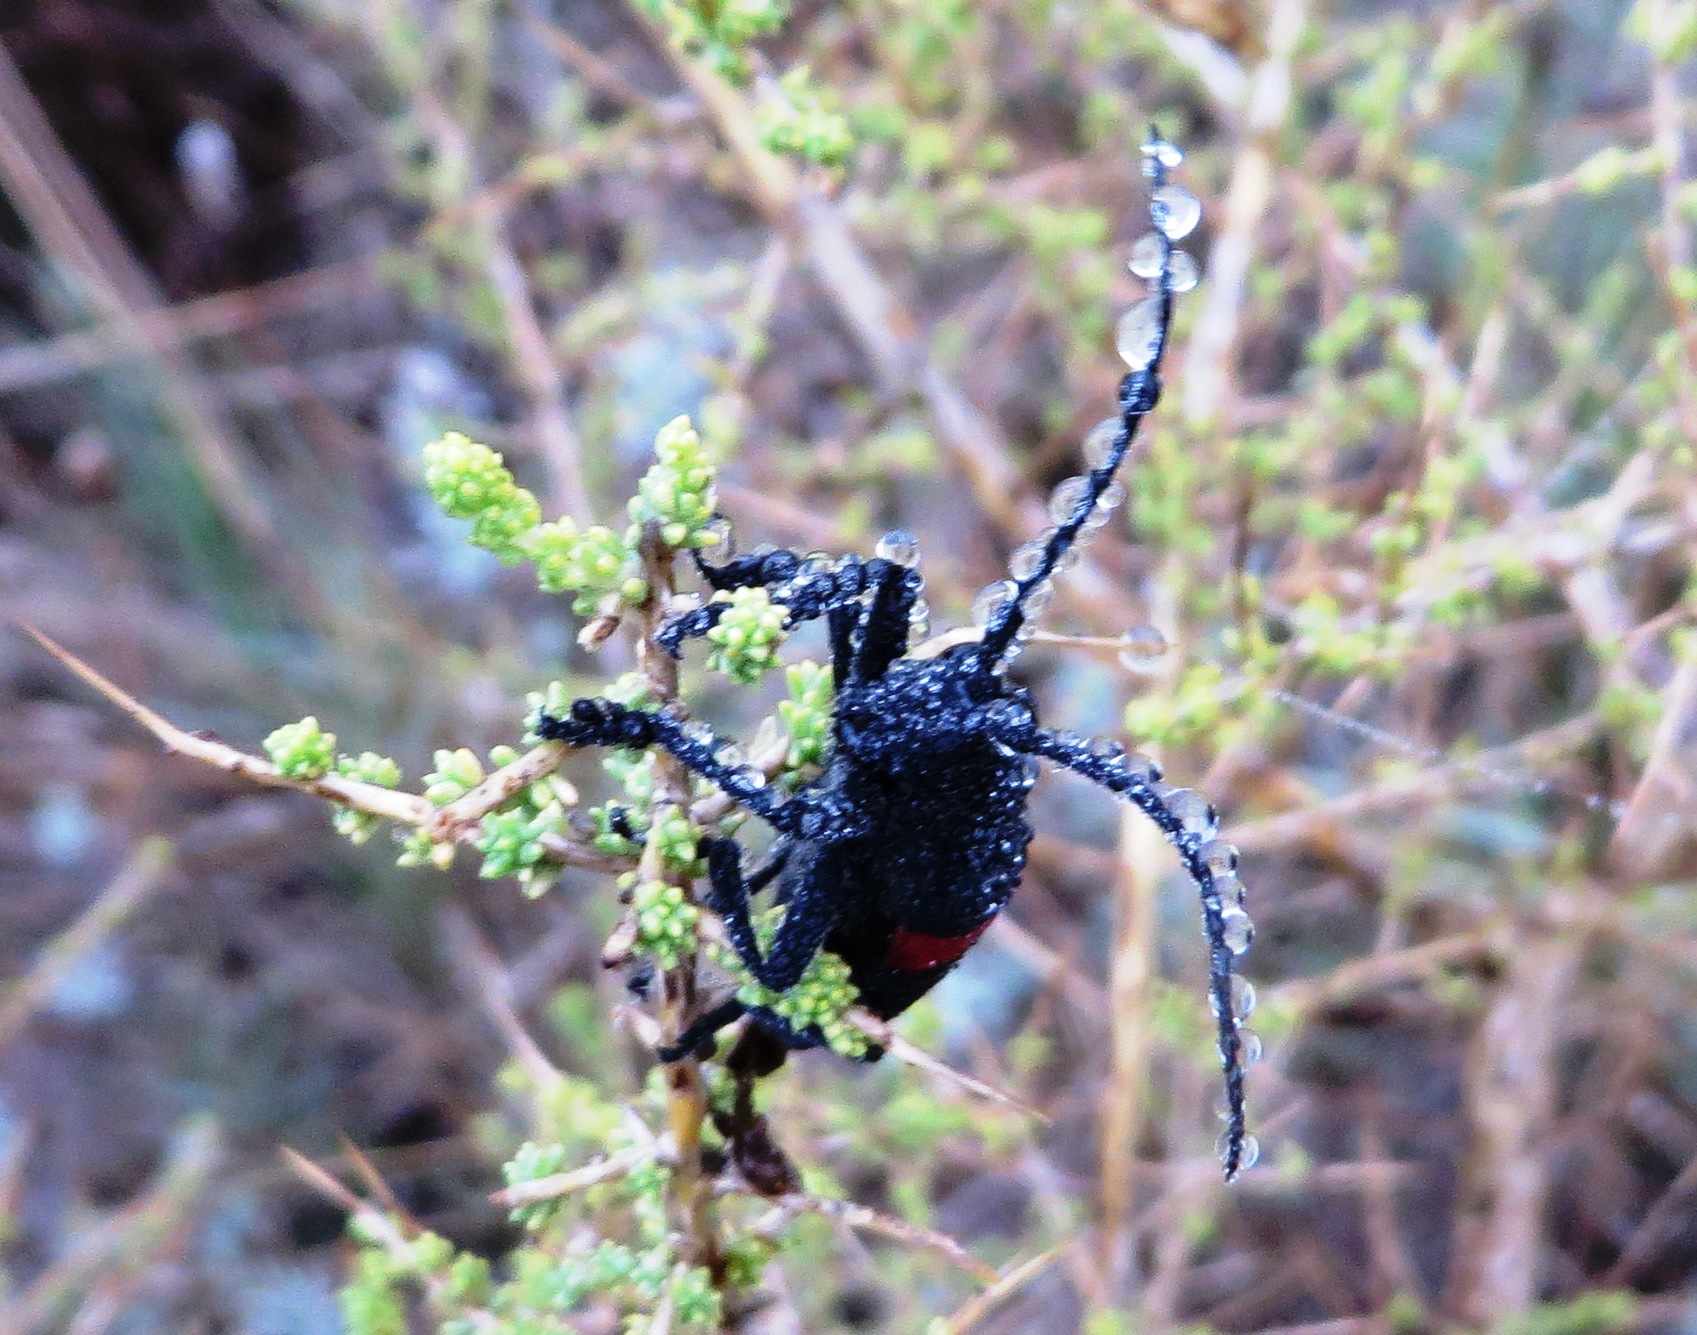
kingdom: Animalia
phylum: Arthropoda
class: Insecta
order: Coleoptera
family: Cerambycidae
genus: Ceroplesis
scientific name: Ceroplesis aethiops
